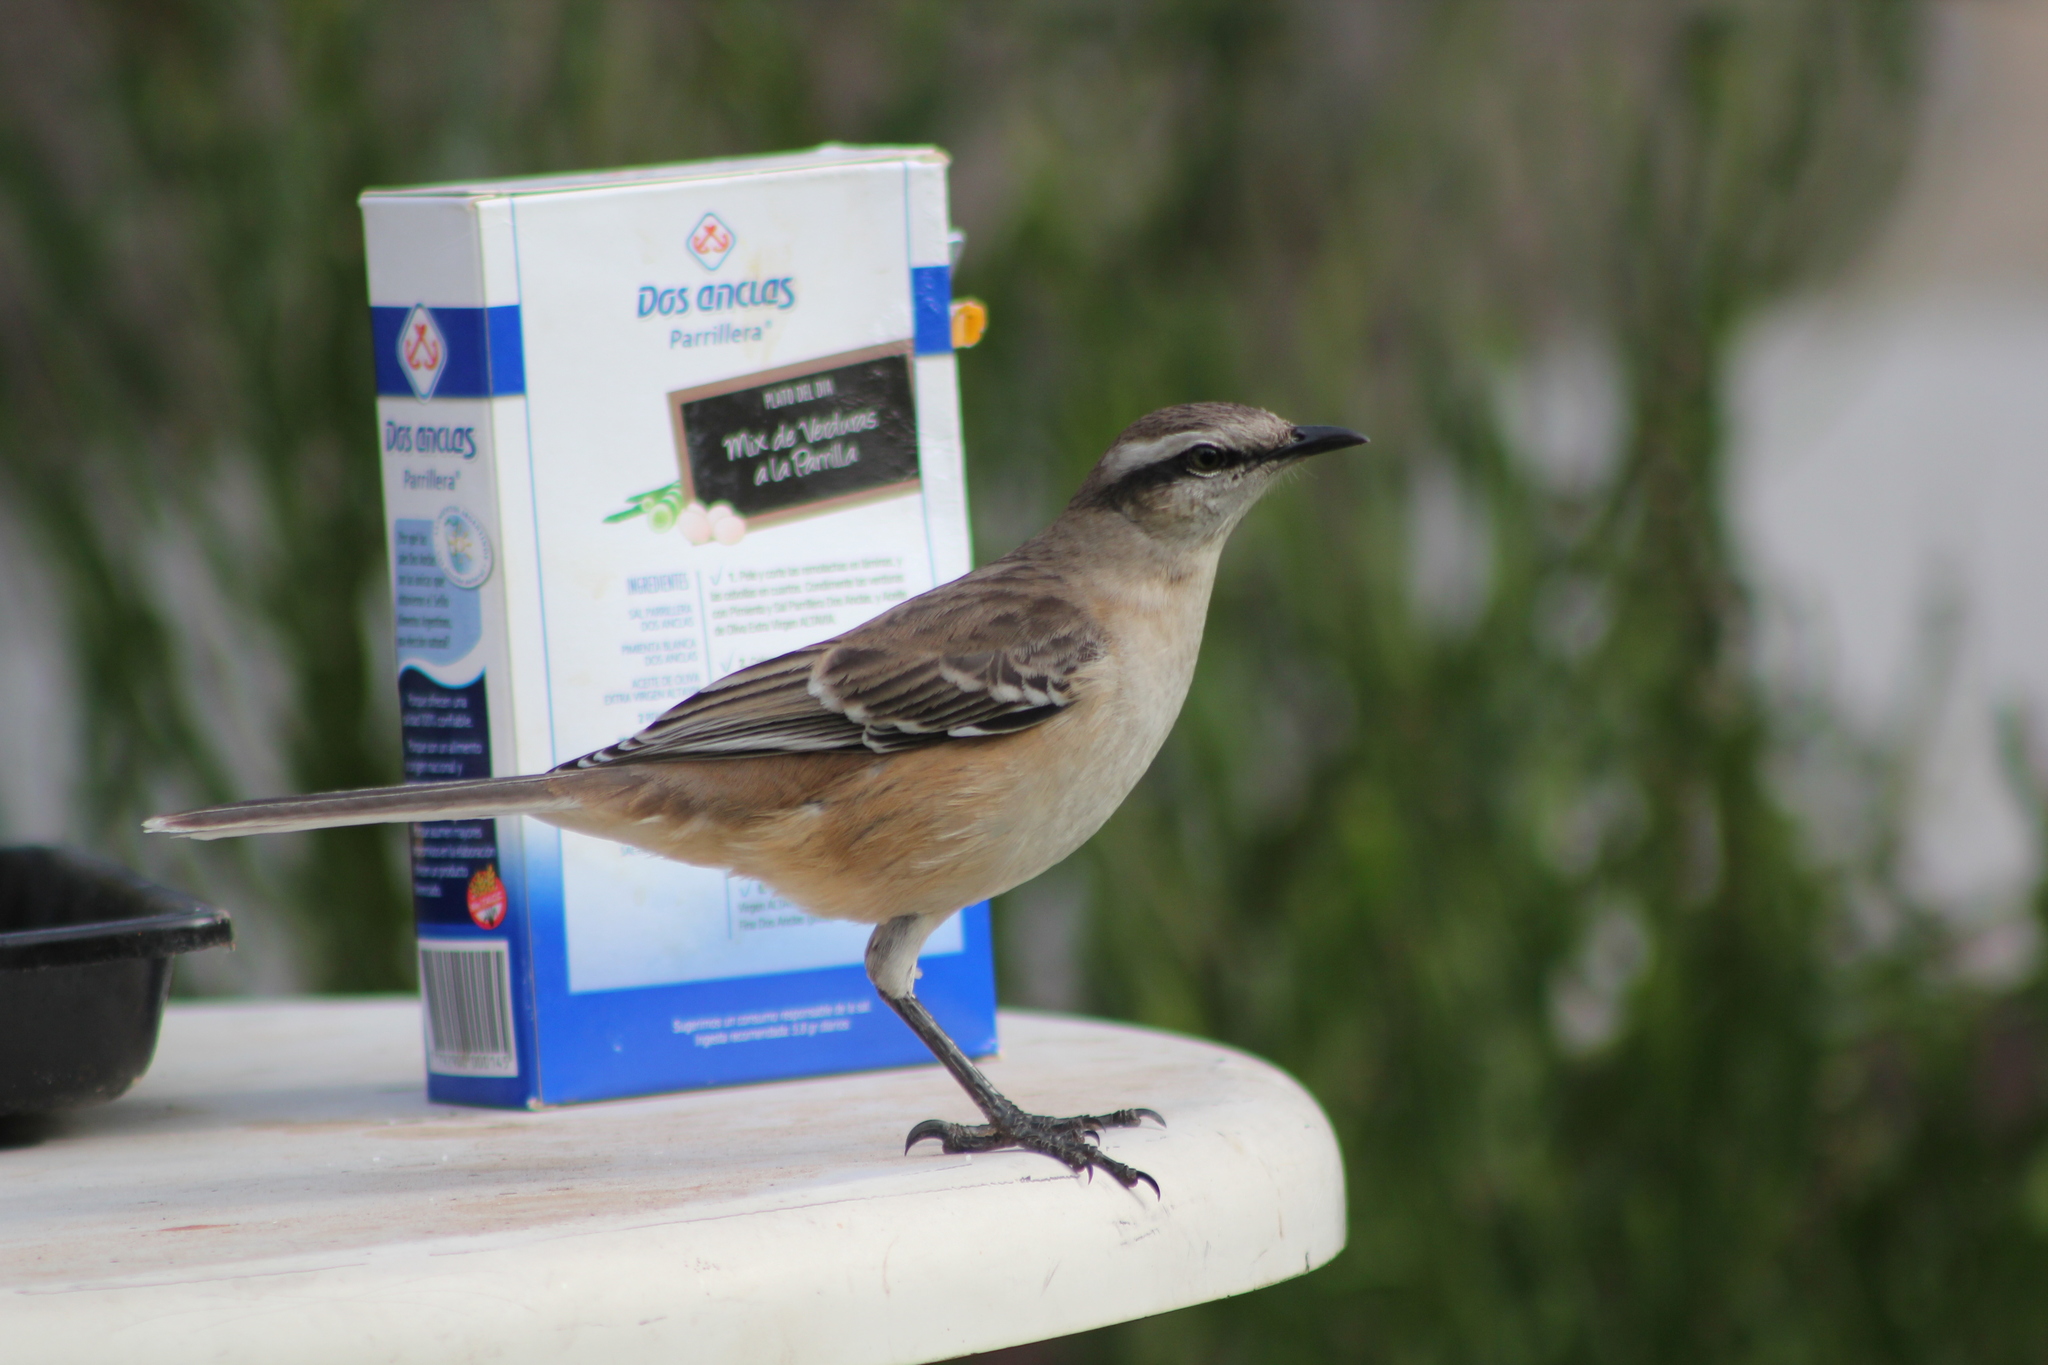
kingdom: Animalia
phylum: Chordata
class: Aves
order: Passeriformes
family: Mimidae
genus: Mimus
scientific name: Mimus saturninus
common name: Chalk-browed mockingbird
